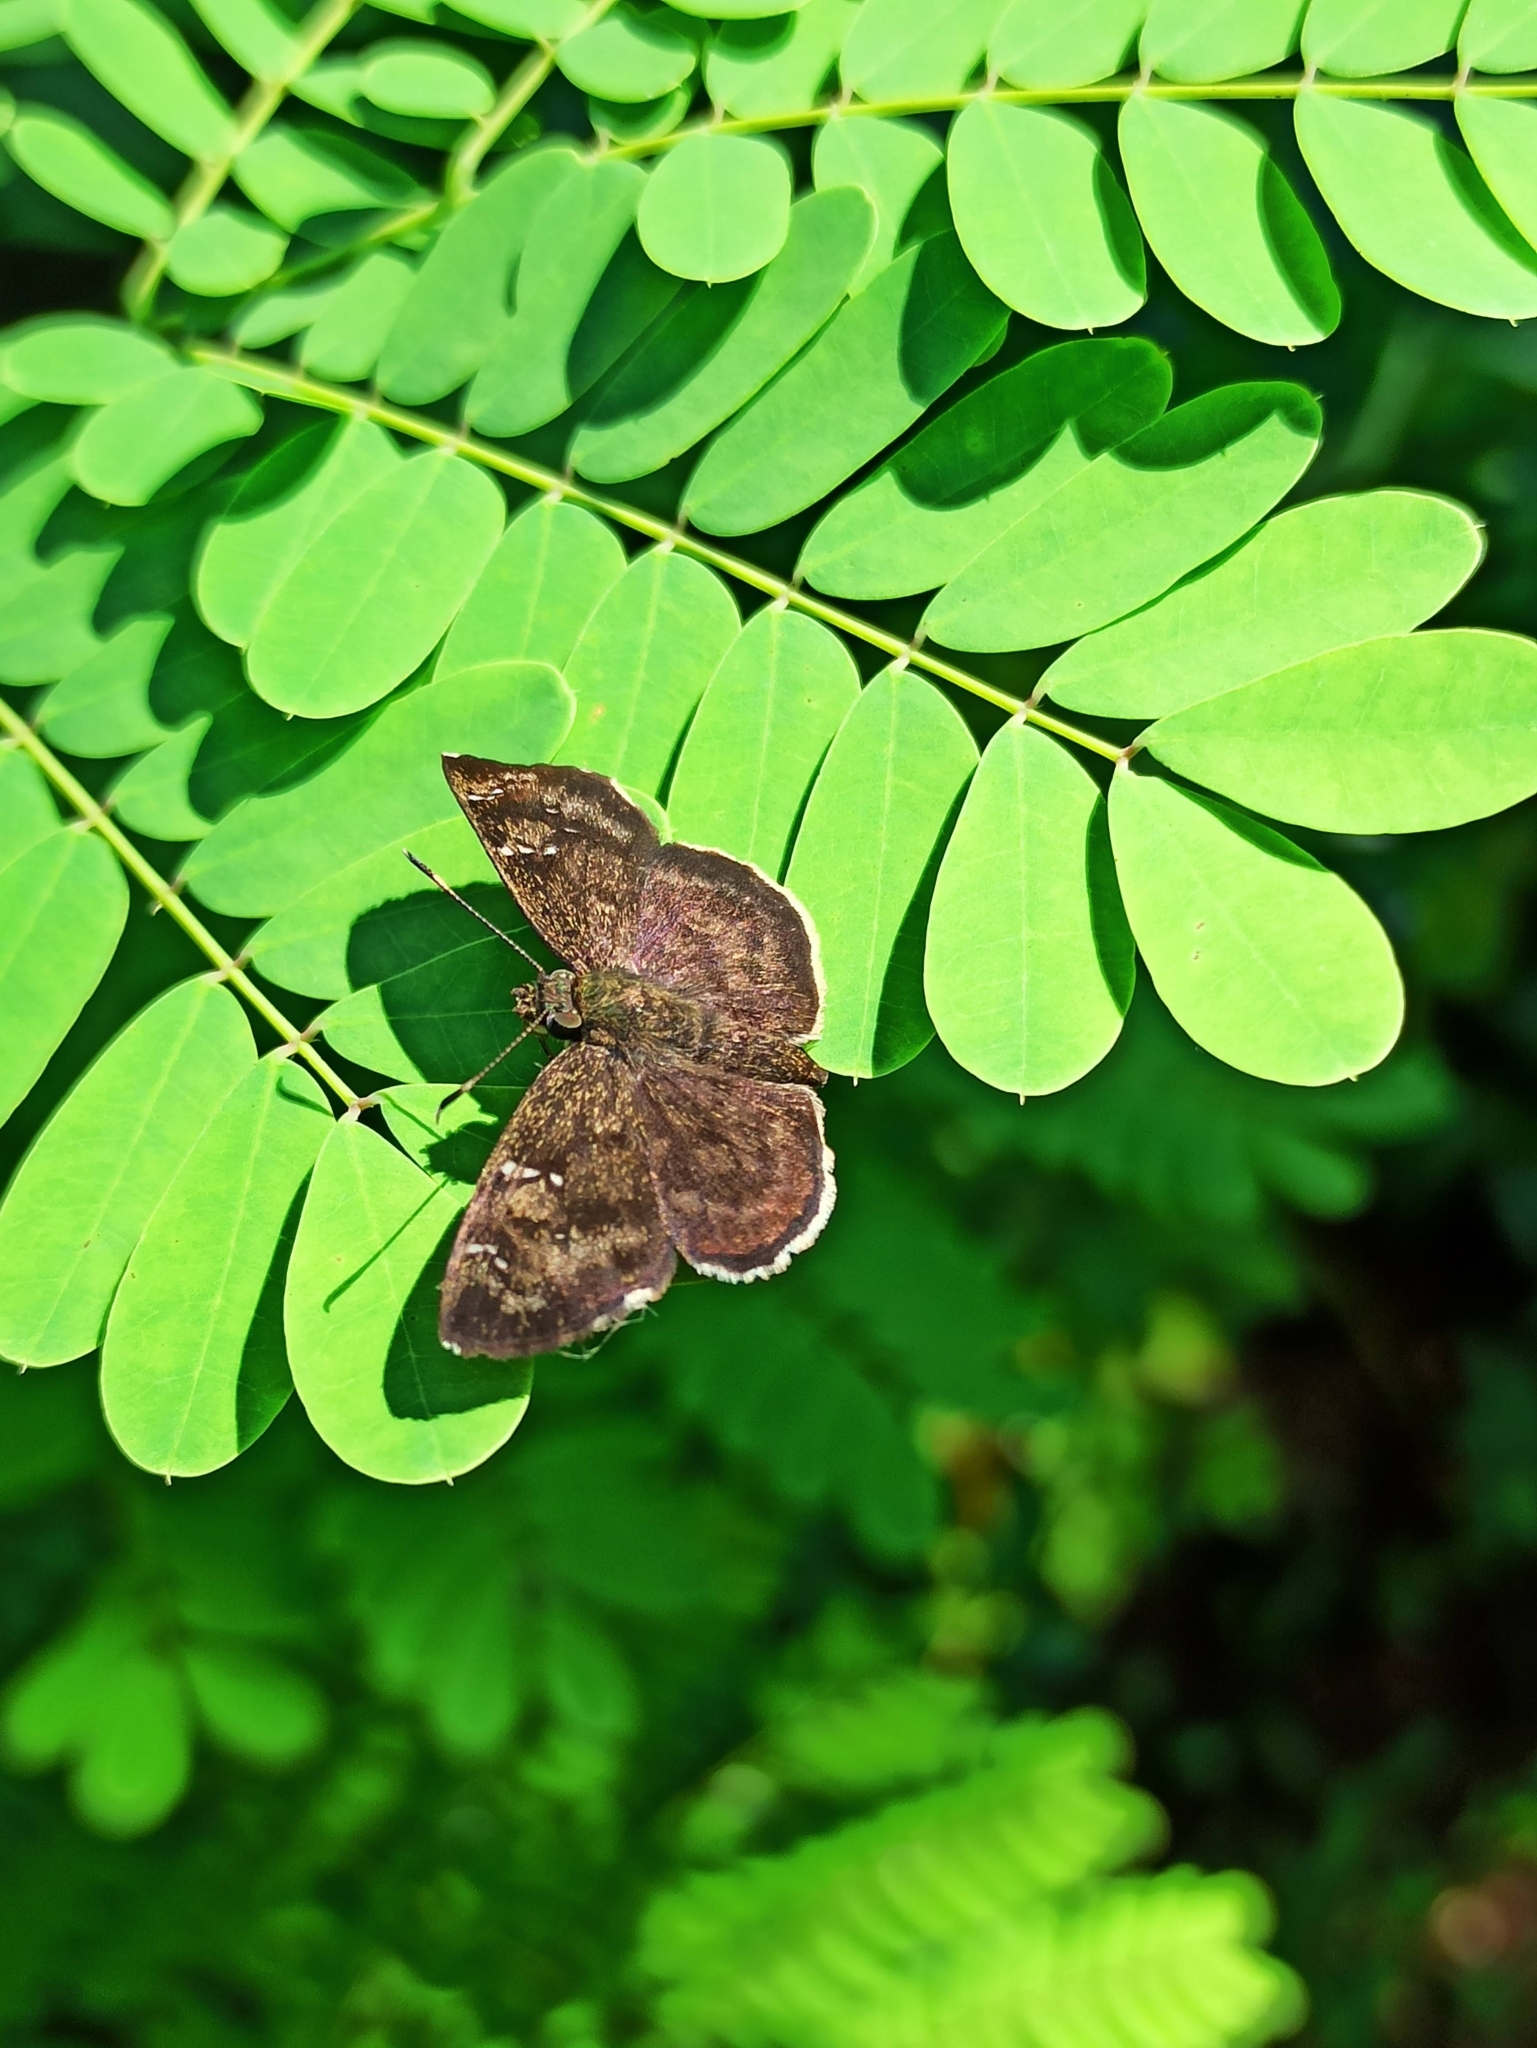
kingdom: Animalia
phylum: Arthropoda
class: Insecta
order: Lepidoptera
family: Hesperiidae
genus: Sarangesa
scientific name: Sarangesa dasahara
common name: Common small flat
